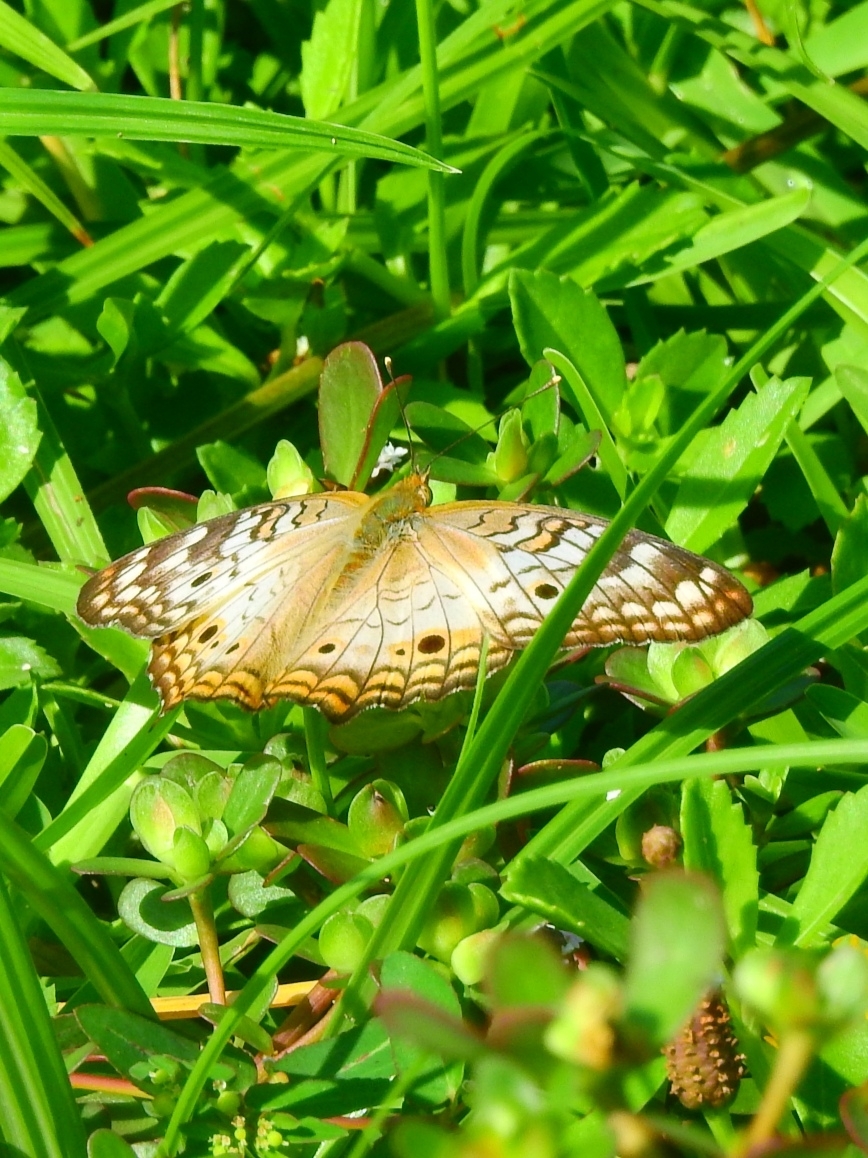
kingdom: Animalia
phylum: Arthropoda
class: Insecta
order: Lepidoptera
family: Nymphalidae
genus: Anartia
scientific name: Anartia jatrophae
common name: White peacock
